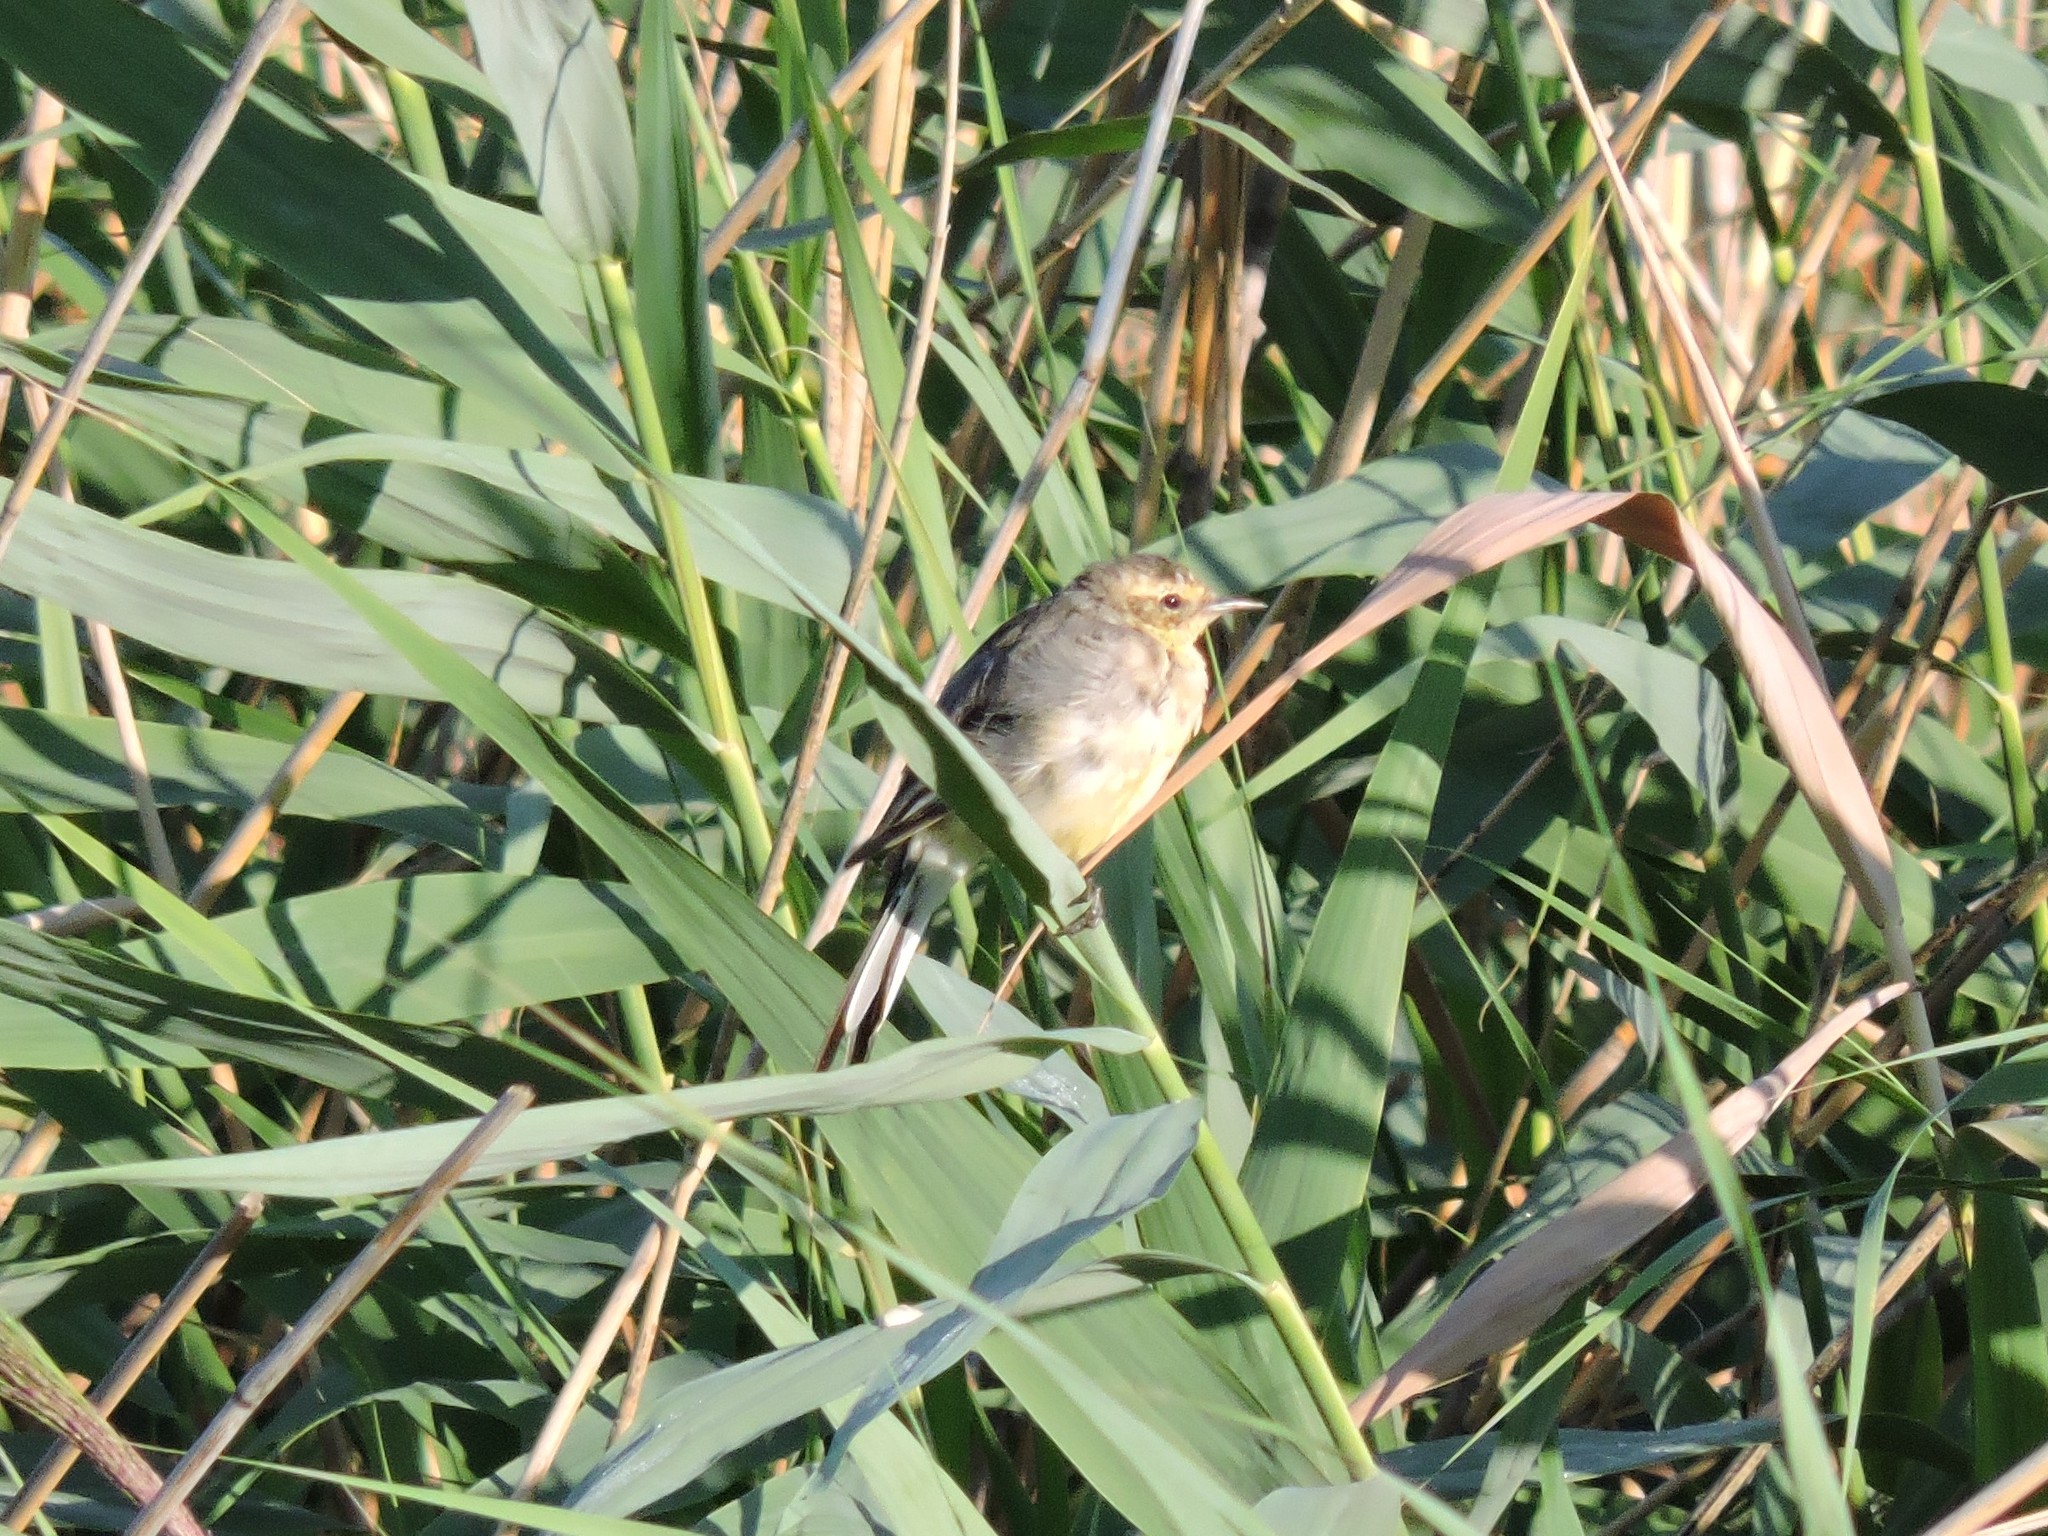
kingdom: Animalia
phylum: Chordata
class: Aves
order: Passeriformes
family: Motacillidae
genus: Motacilla
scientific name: Motacilla citreola
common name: Citrine wagtail
